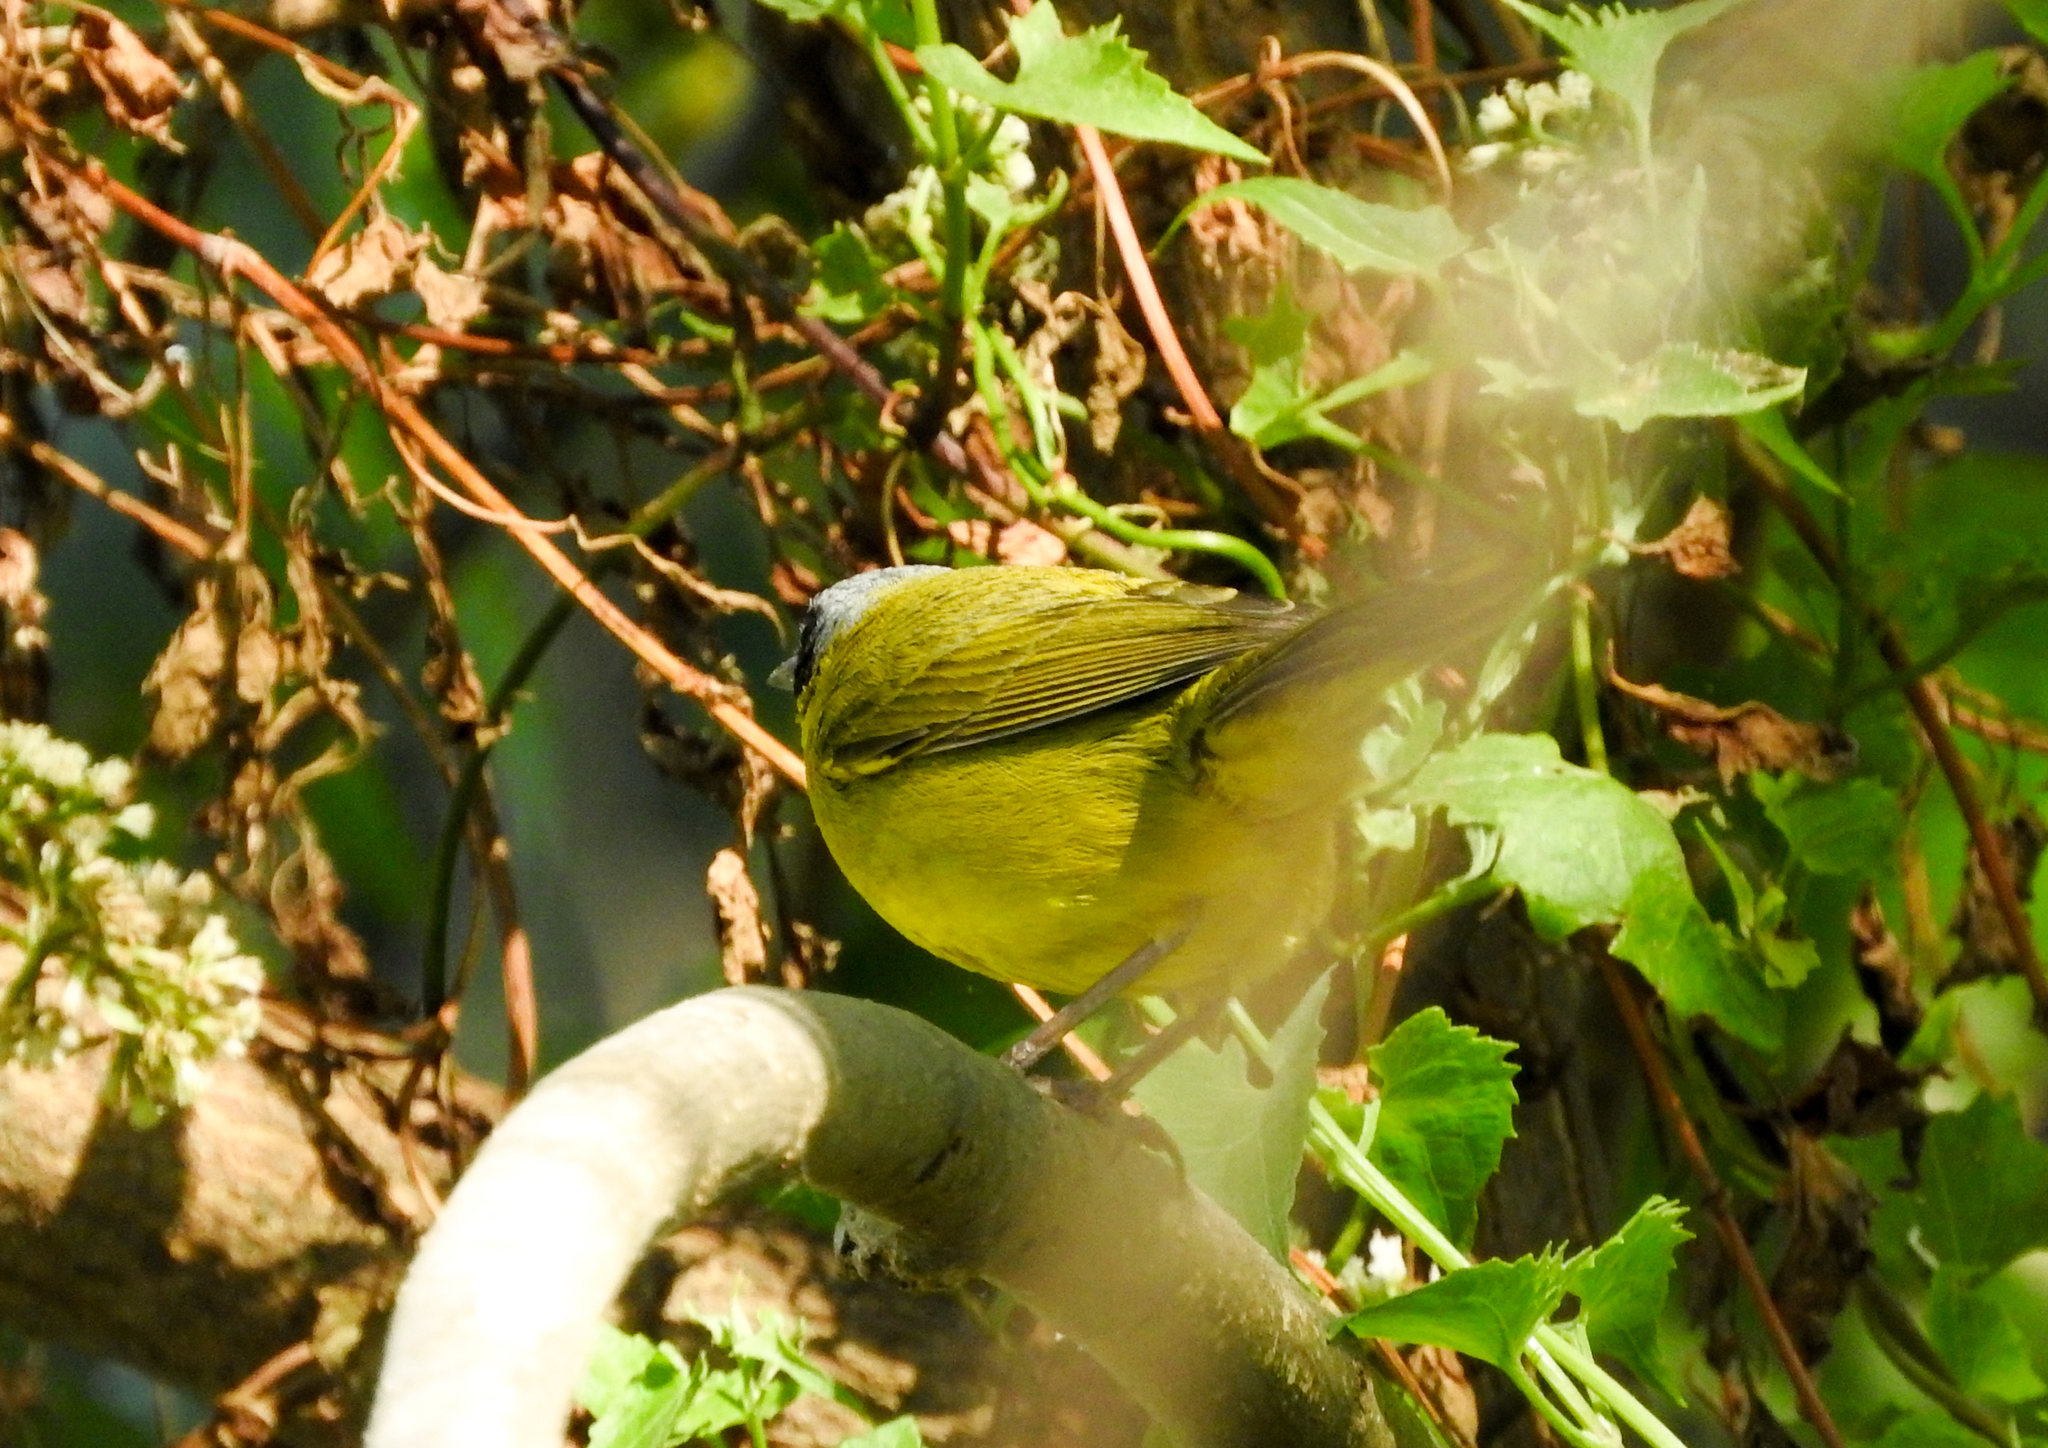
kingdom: Animalia
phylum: Chordata
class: Aves
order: Passeriformes
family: Parulidae
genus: Geothlypis
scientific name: Geothlypis velata
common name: Southern yellowthroat
